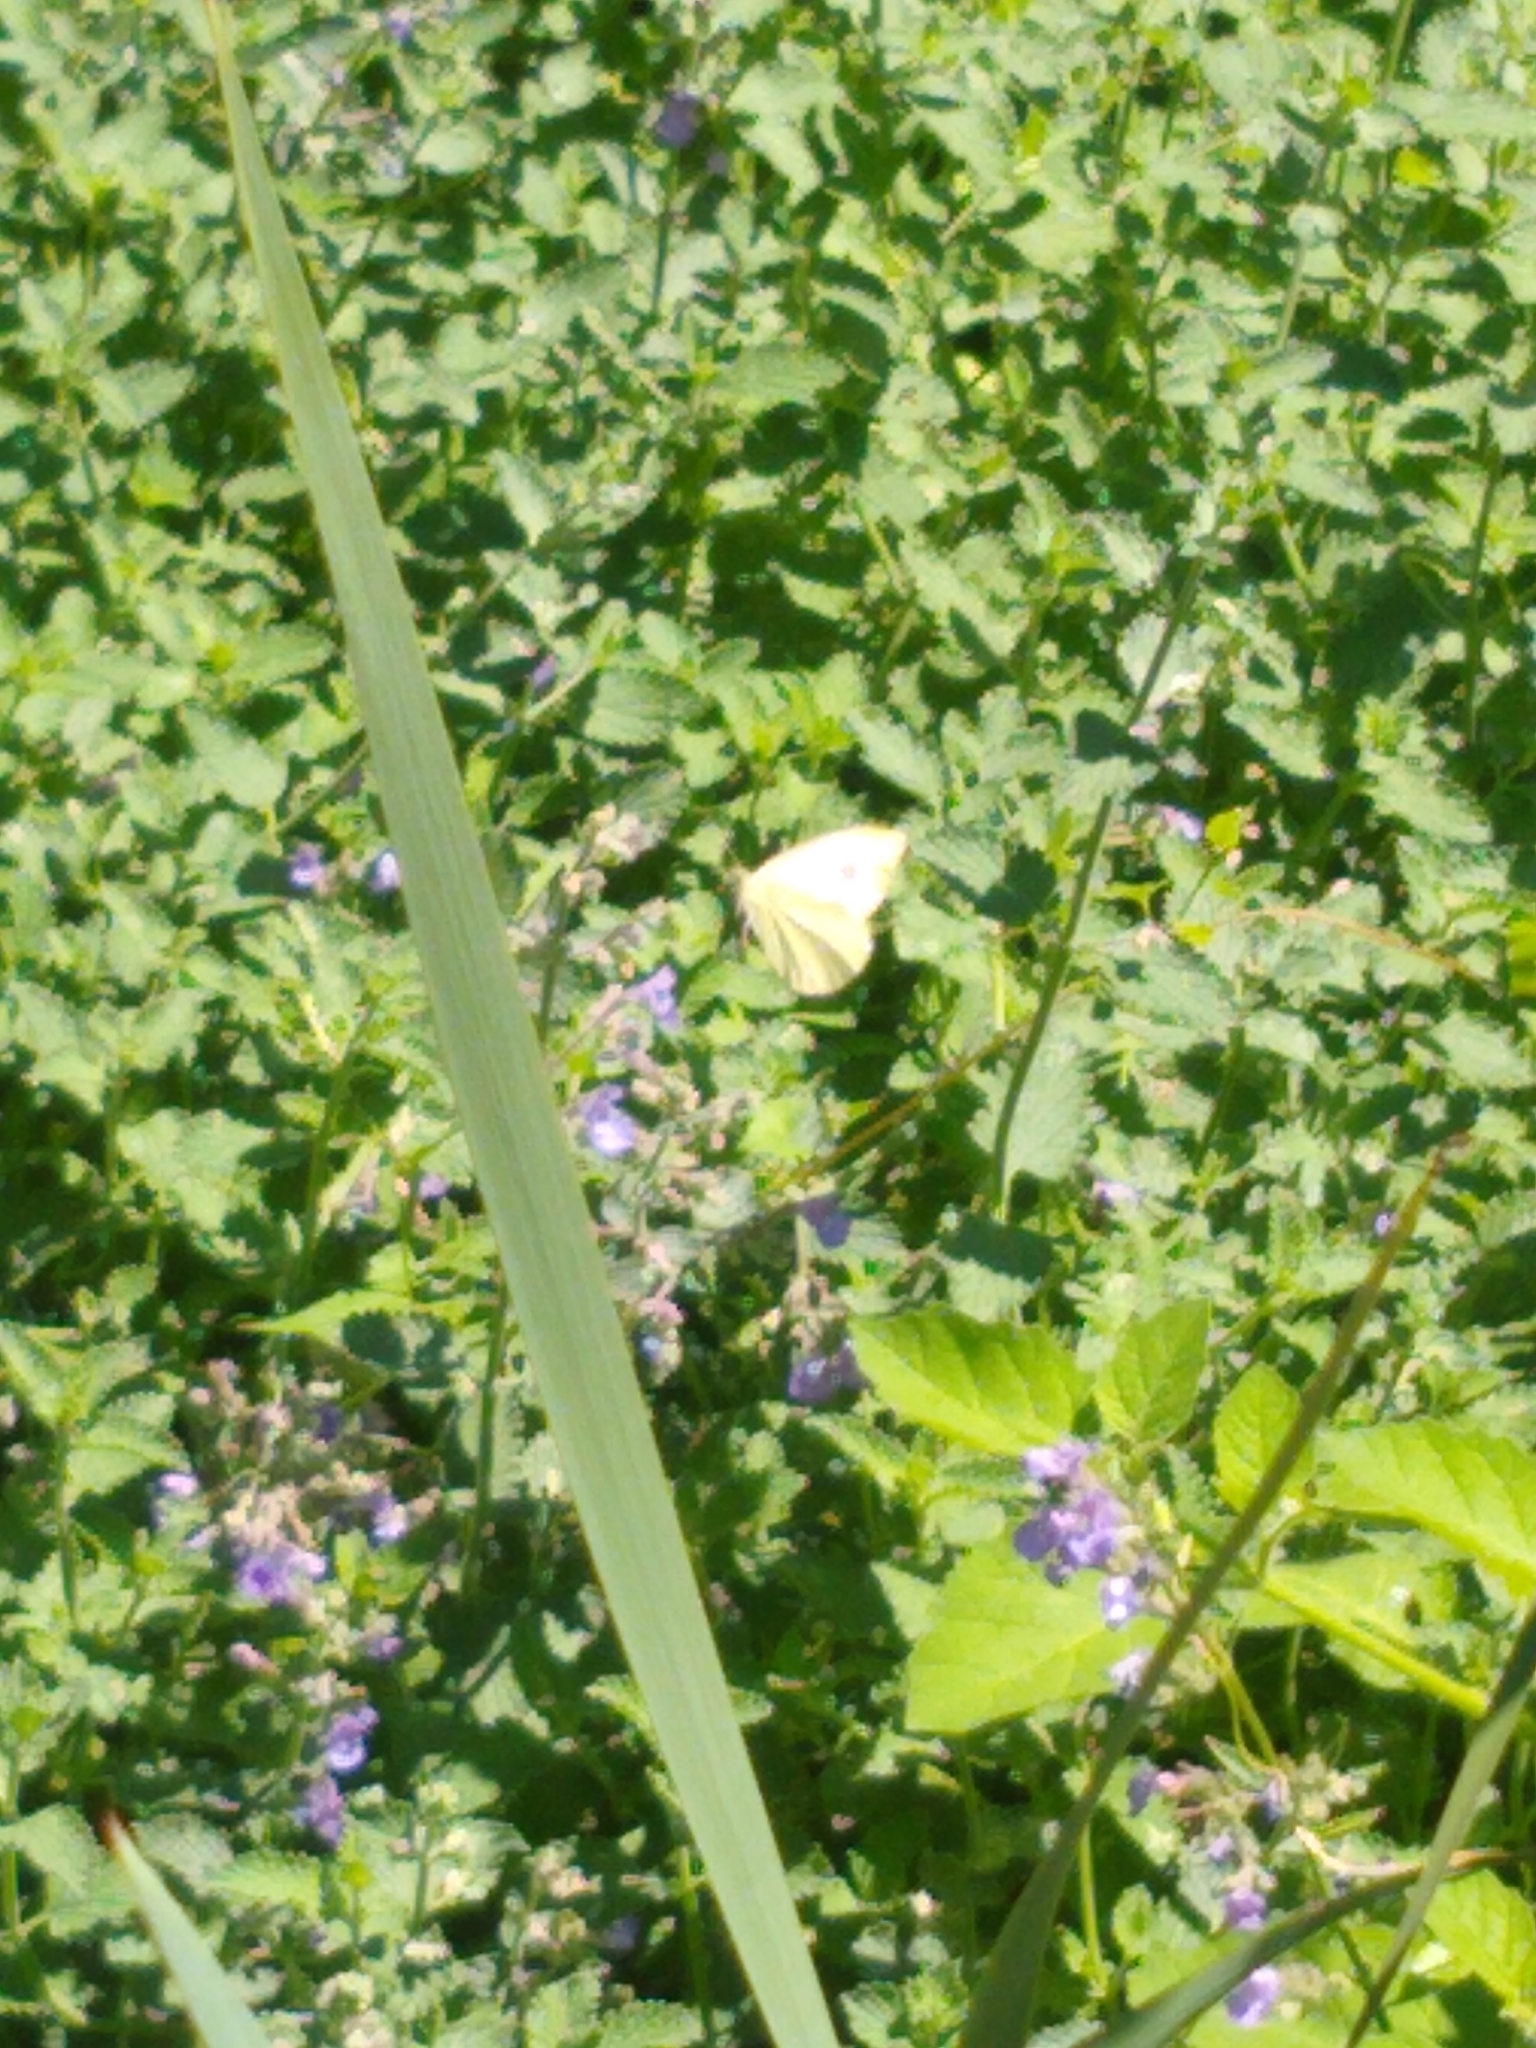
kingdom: Animalia
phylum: Arthropoda
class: Insecta
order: Lepidoptera
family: Pieridae
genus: Pieris
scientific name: Pieris rapae
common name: Small white
